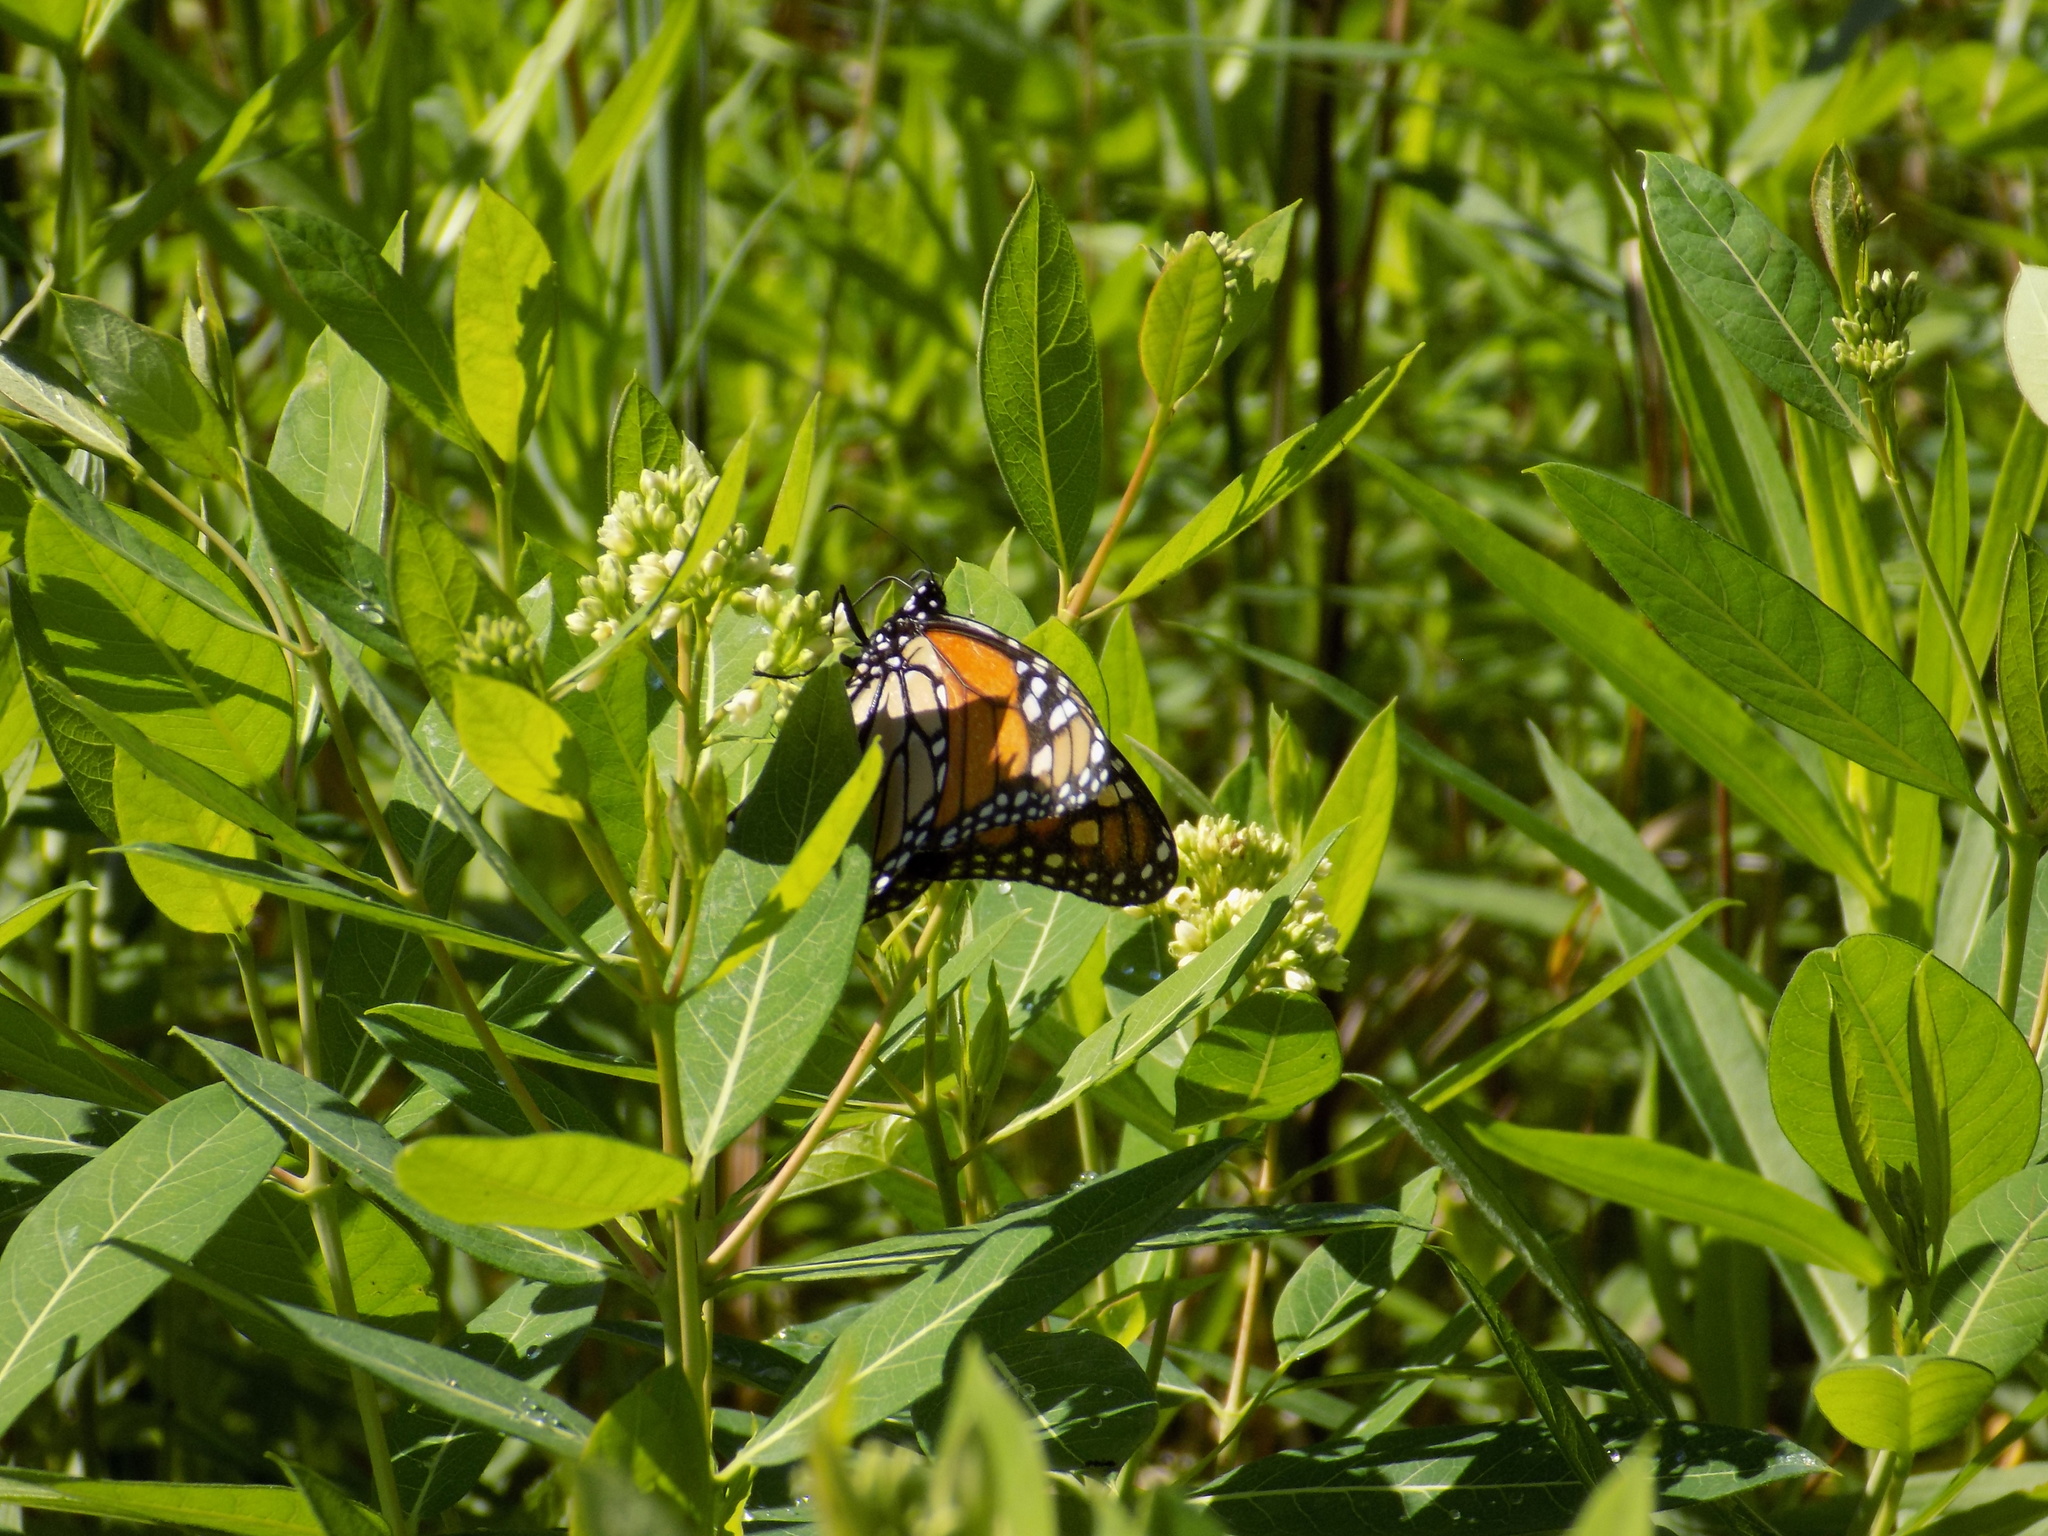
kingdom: Animalia
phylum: Arthropoda
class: Insecta
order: Lepidoptera
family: Nymphalidae
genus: Danaus
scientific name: Danaus plexippus
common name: Monarch
